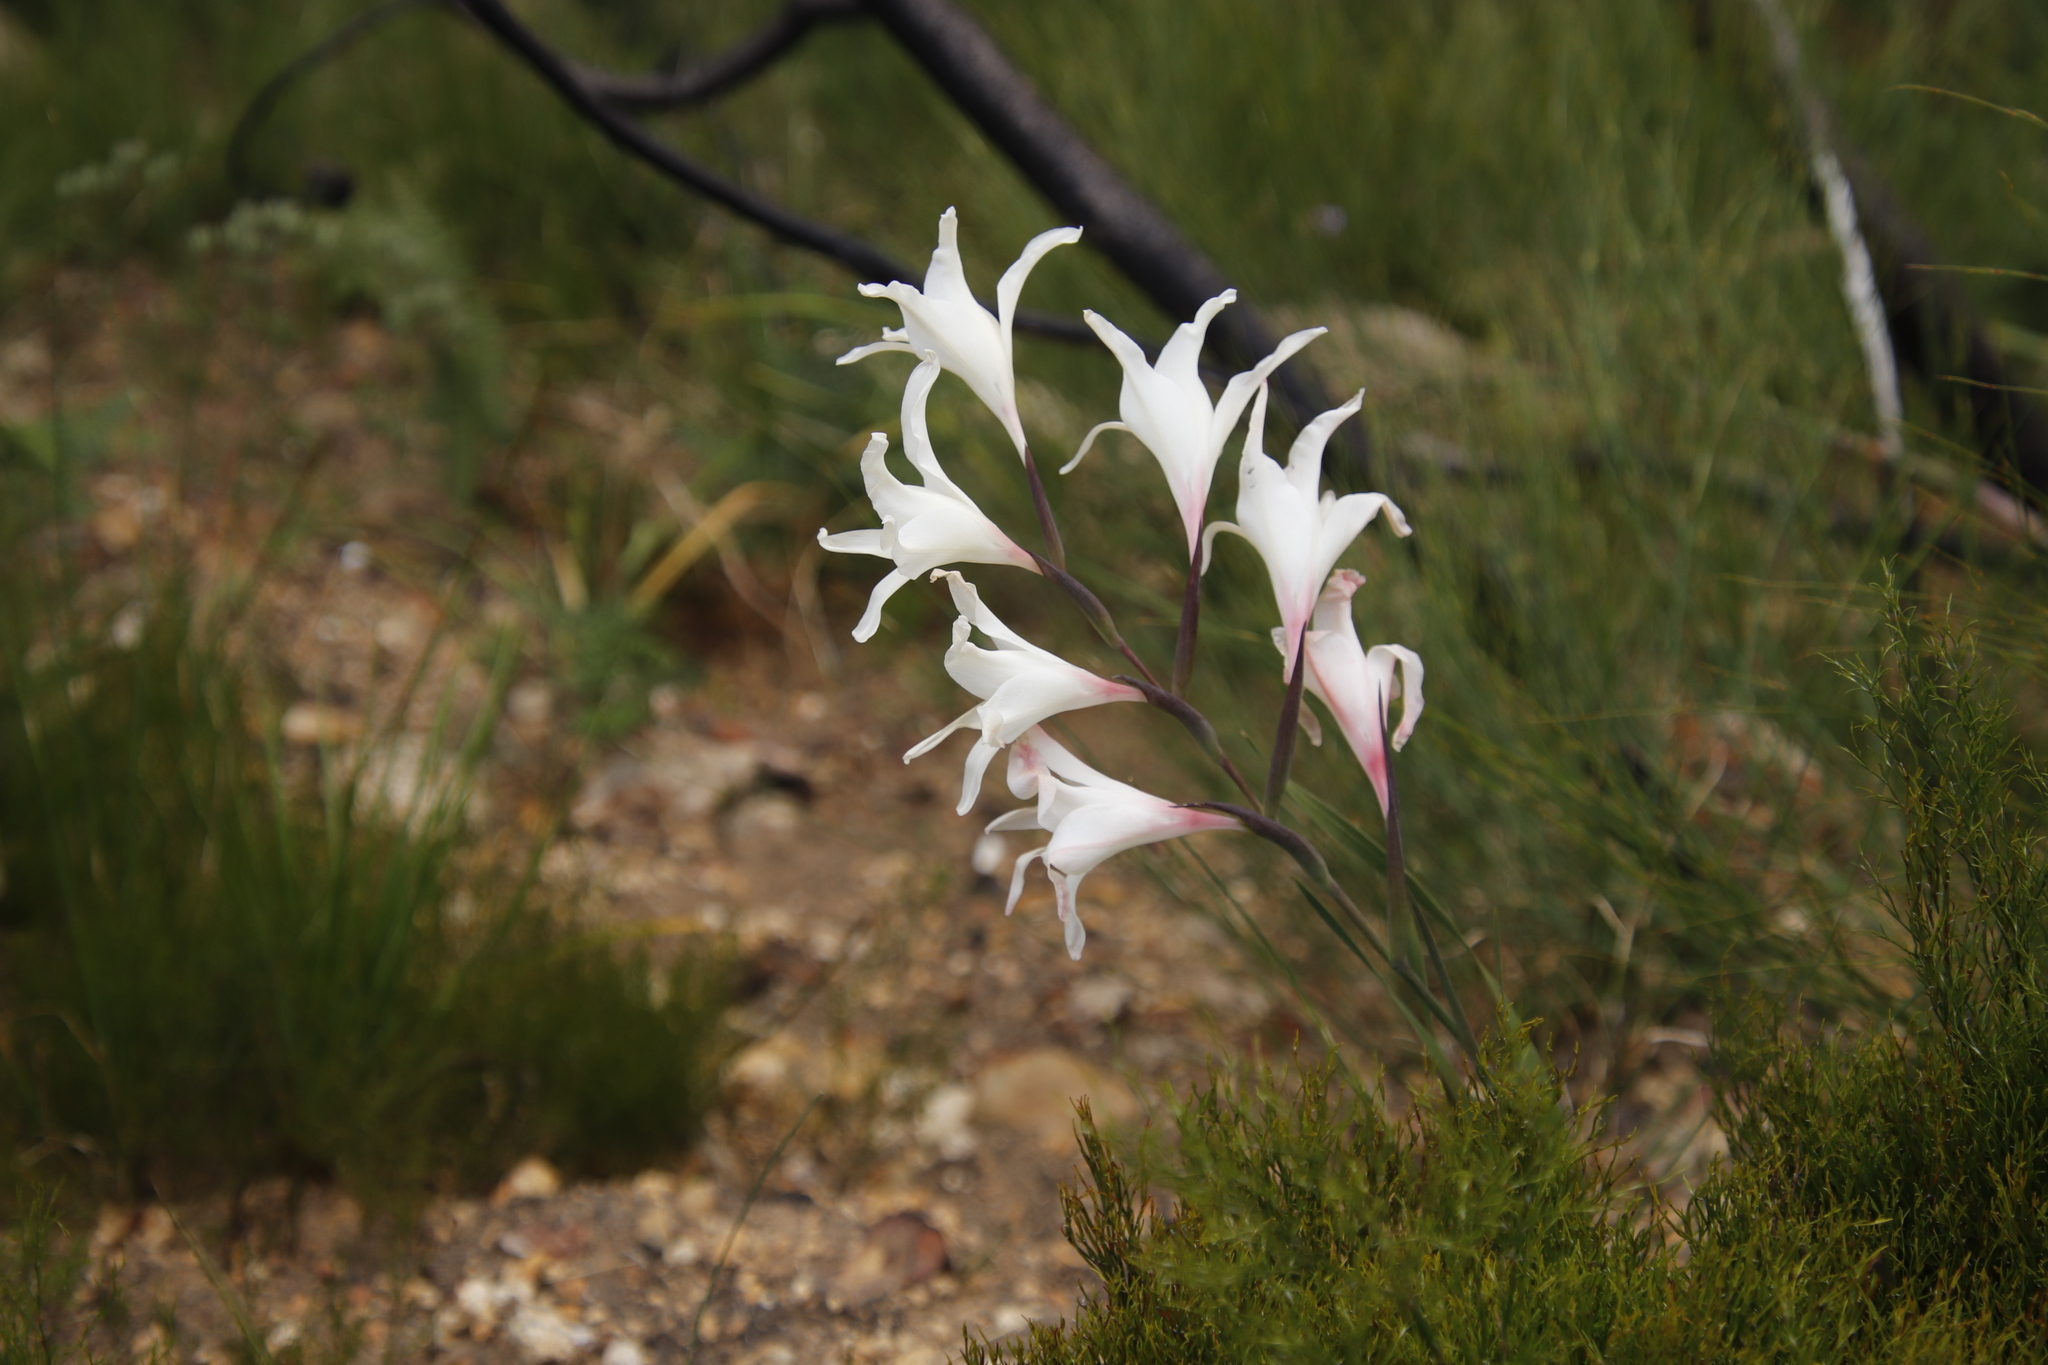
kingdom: Plantae
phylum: Tracheophyta
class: Liliopsida
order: Asparagales
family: Iridaceae
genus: Gladiolus
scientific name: Gladiolus undulatus
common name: Large painted-lady
